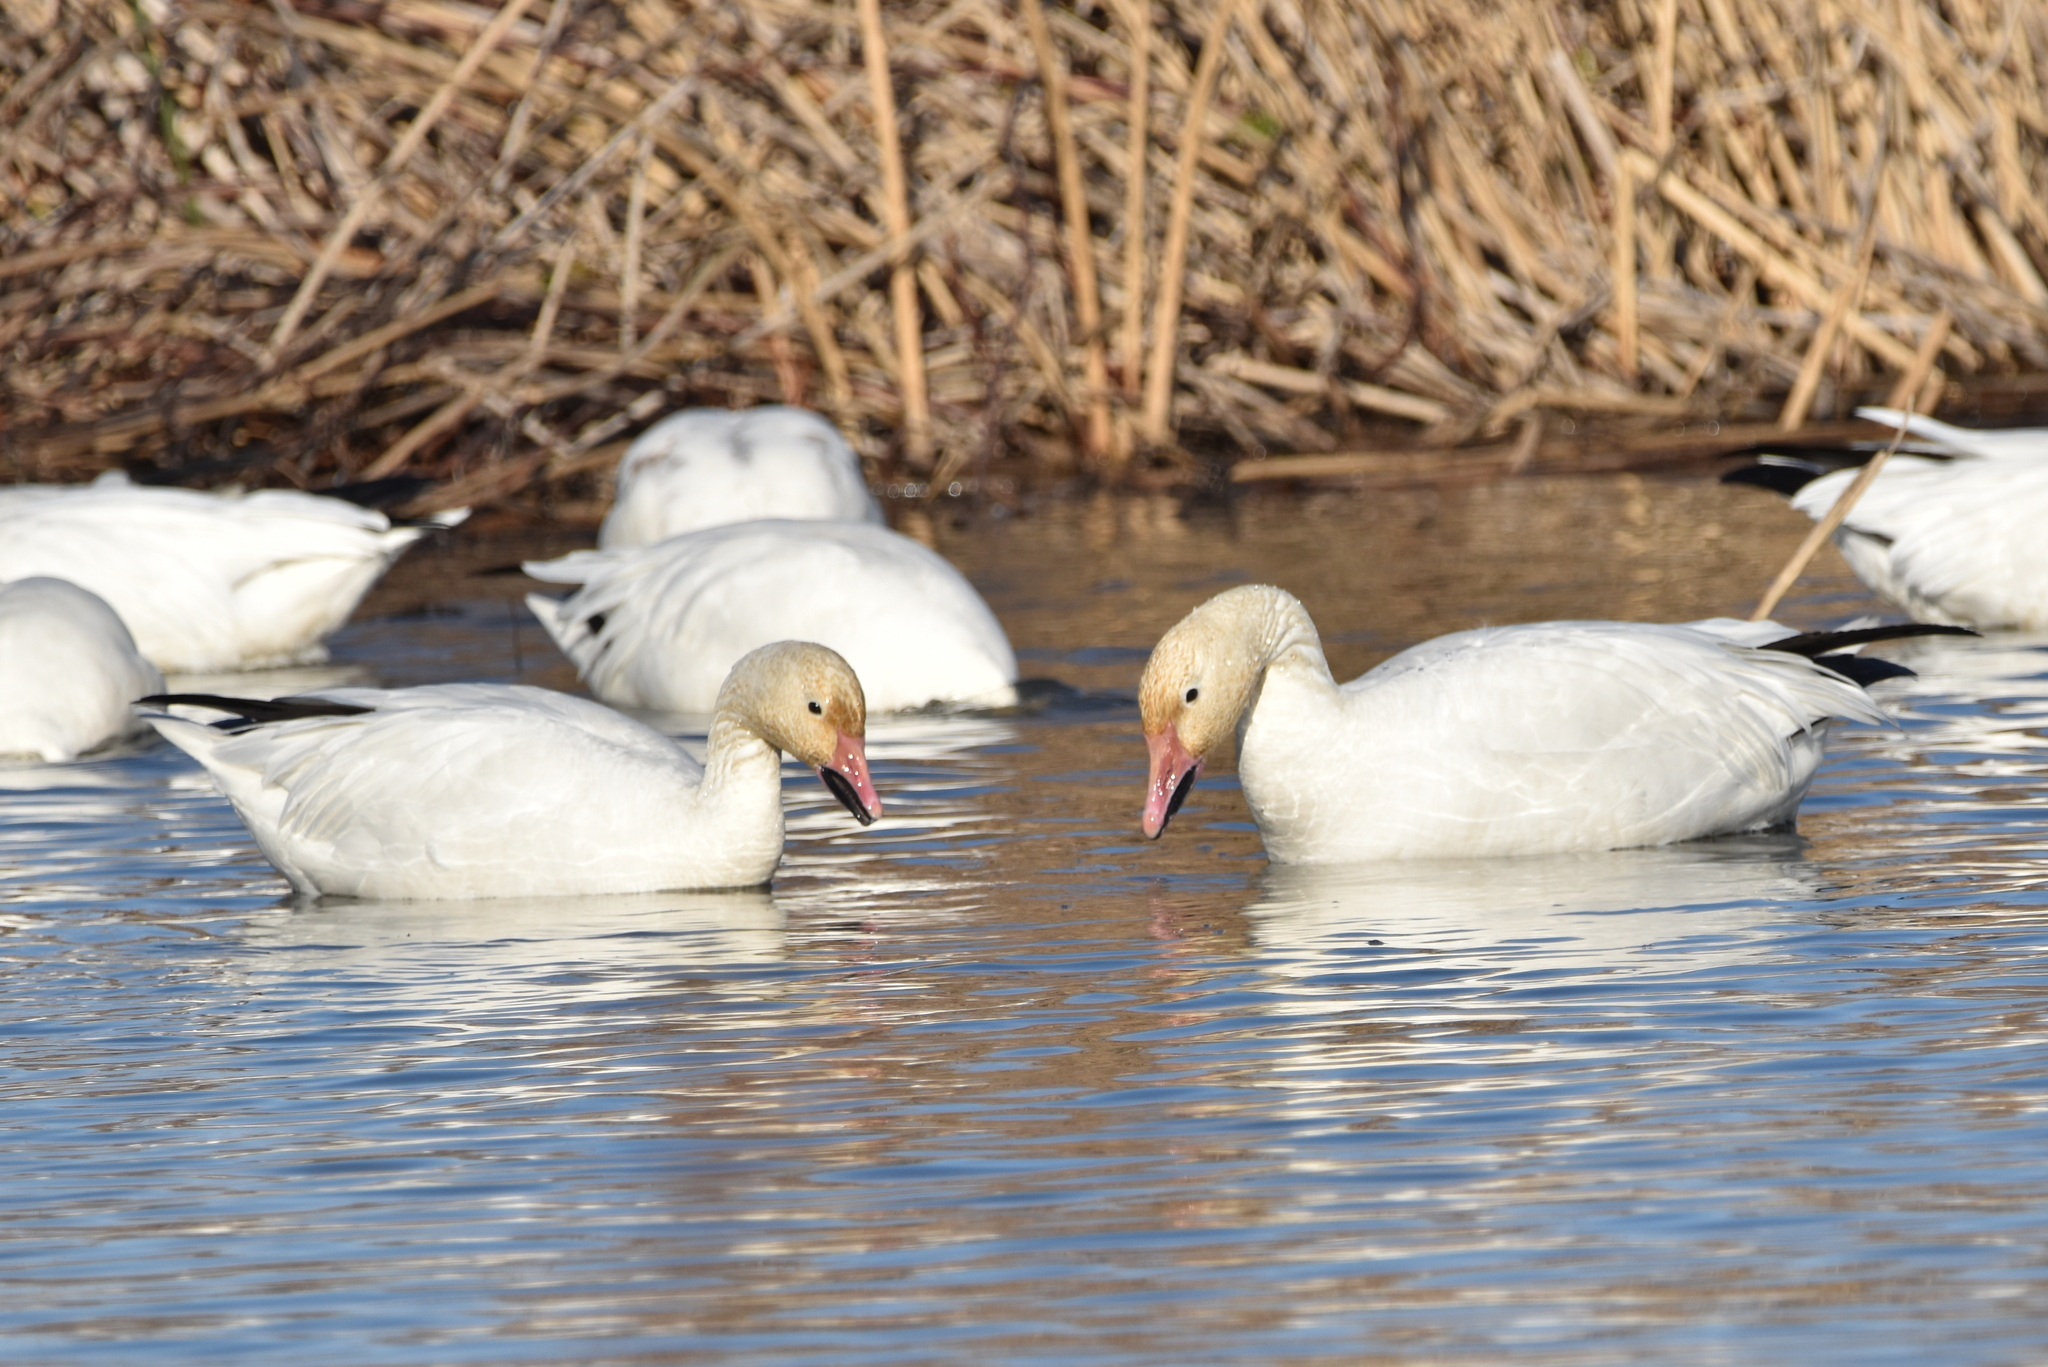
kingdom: Animalia
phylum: Chordata
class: Aves
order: Anseriformes
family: Anatidae
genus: Anser
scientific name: Anser caerulescens
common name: Snow goose
